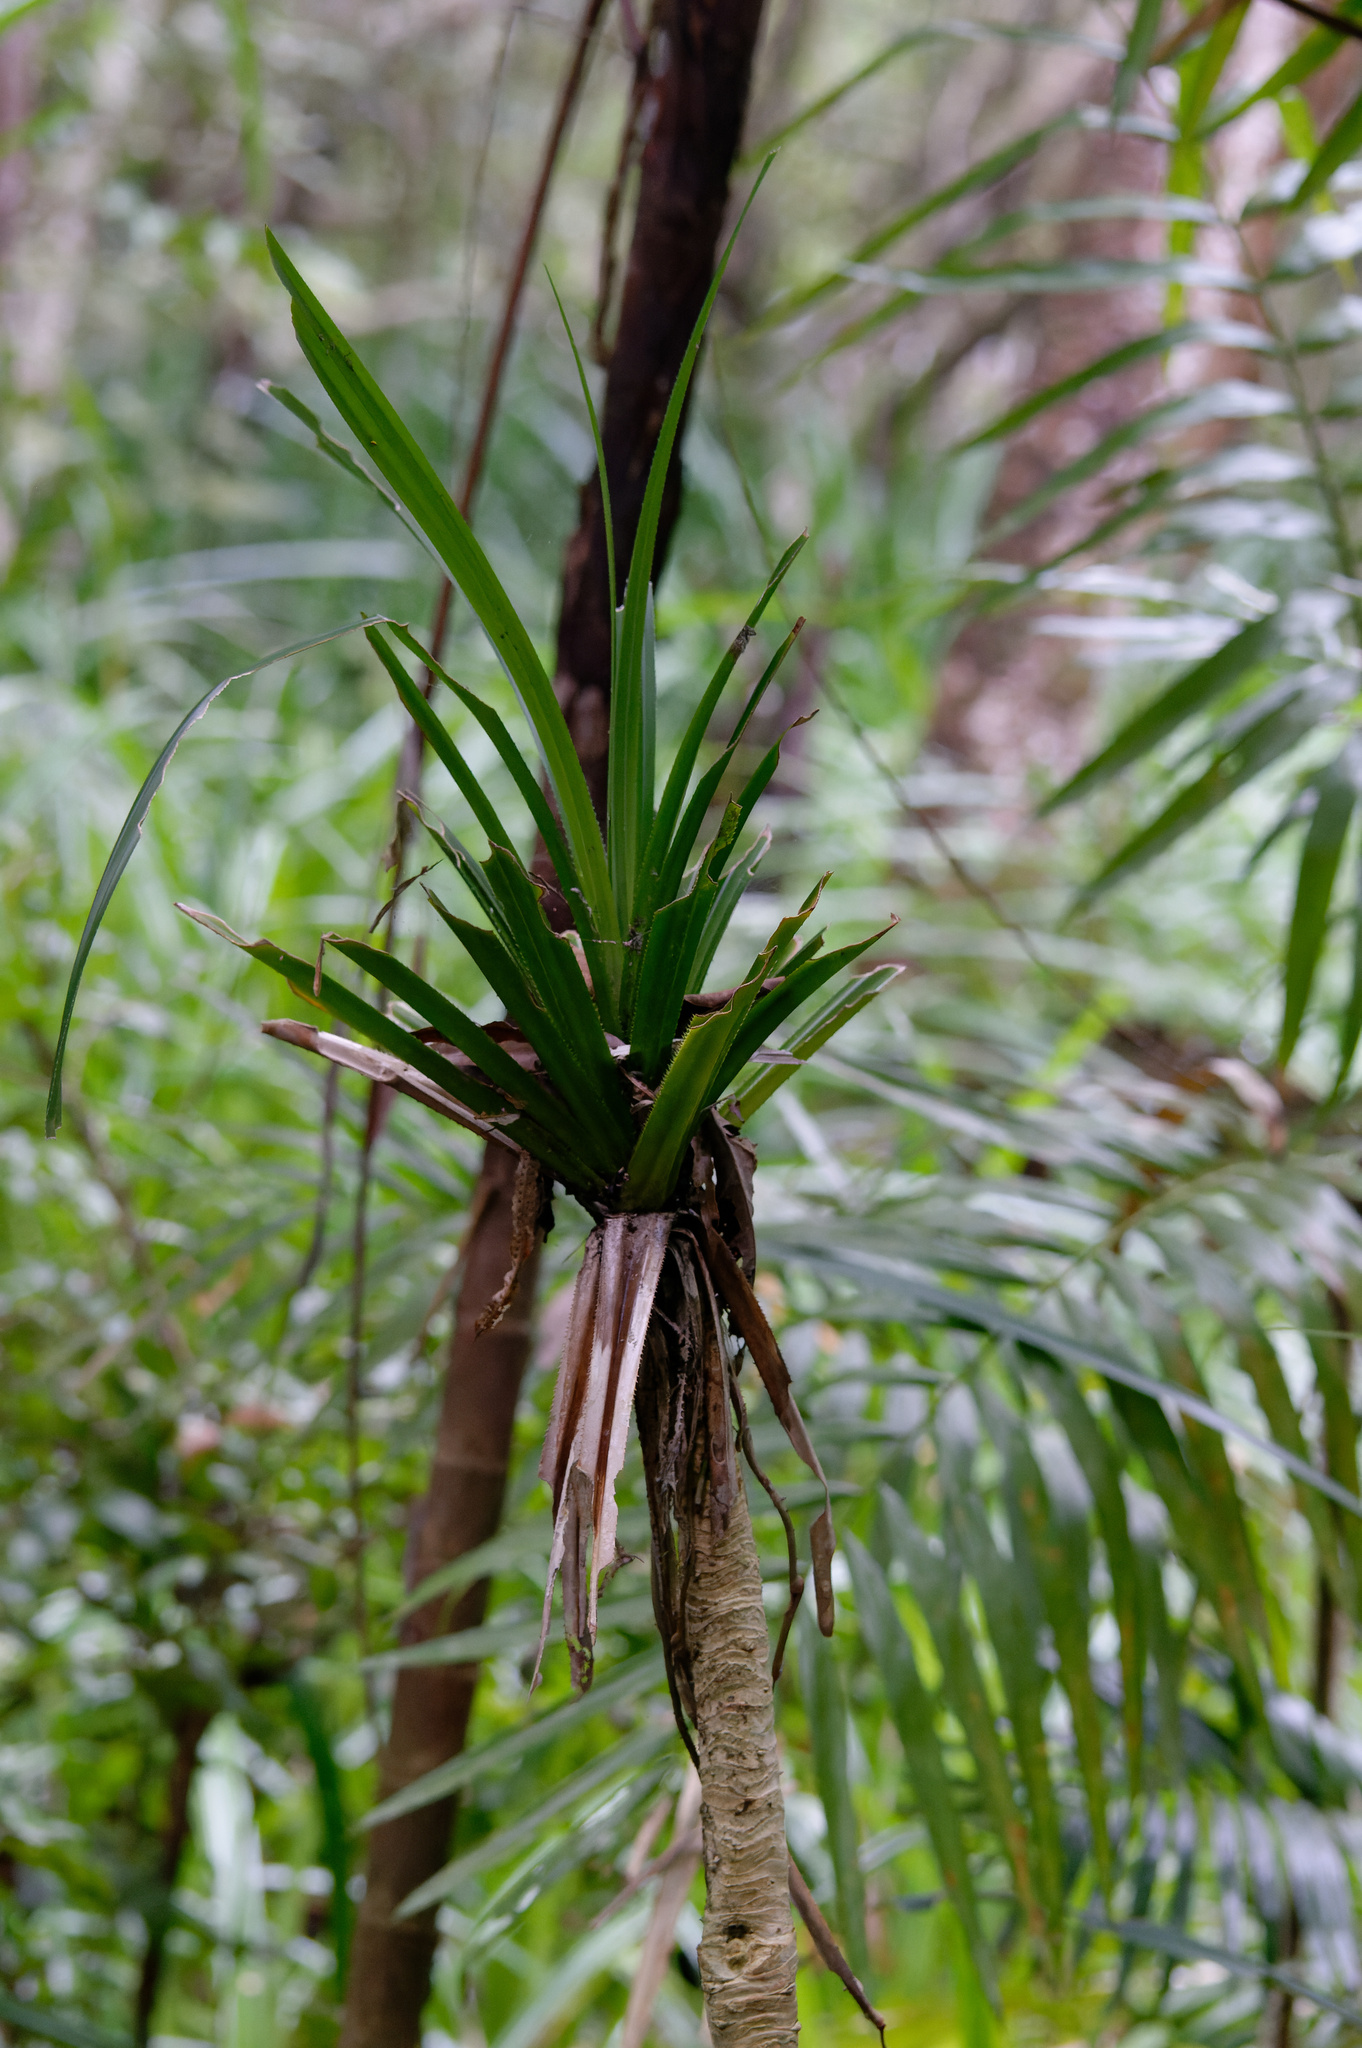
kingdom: Plantae
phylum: Tracheophyta
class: Liliopsida
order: Pandanales
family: Pandanaceae
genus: Benstonea
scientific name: Benstonea monticola
